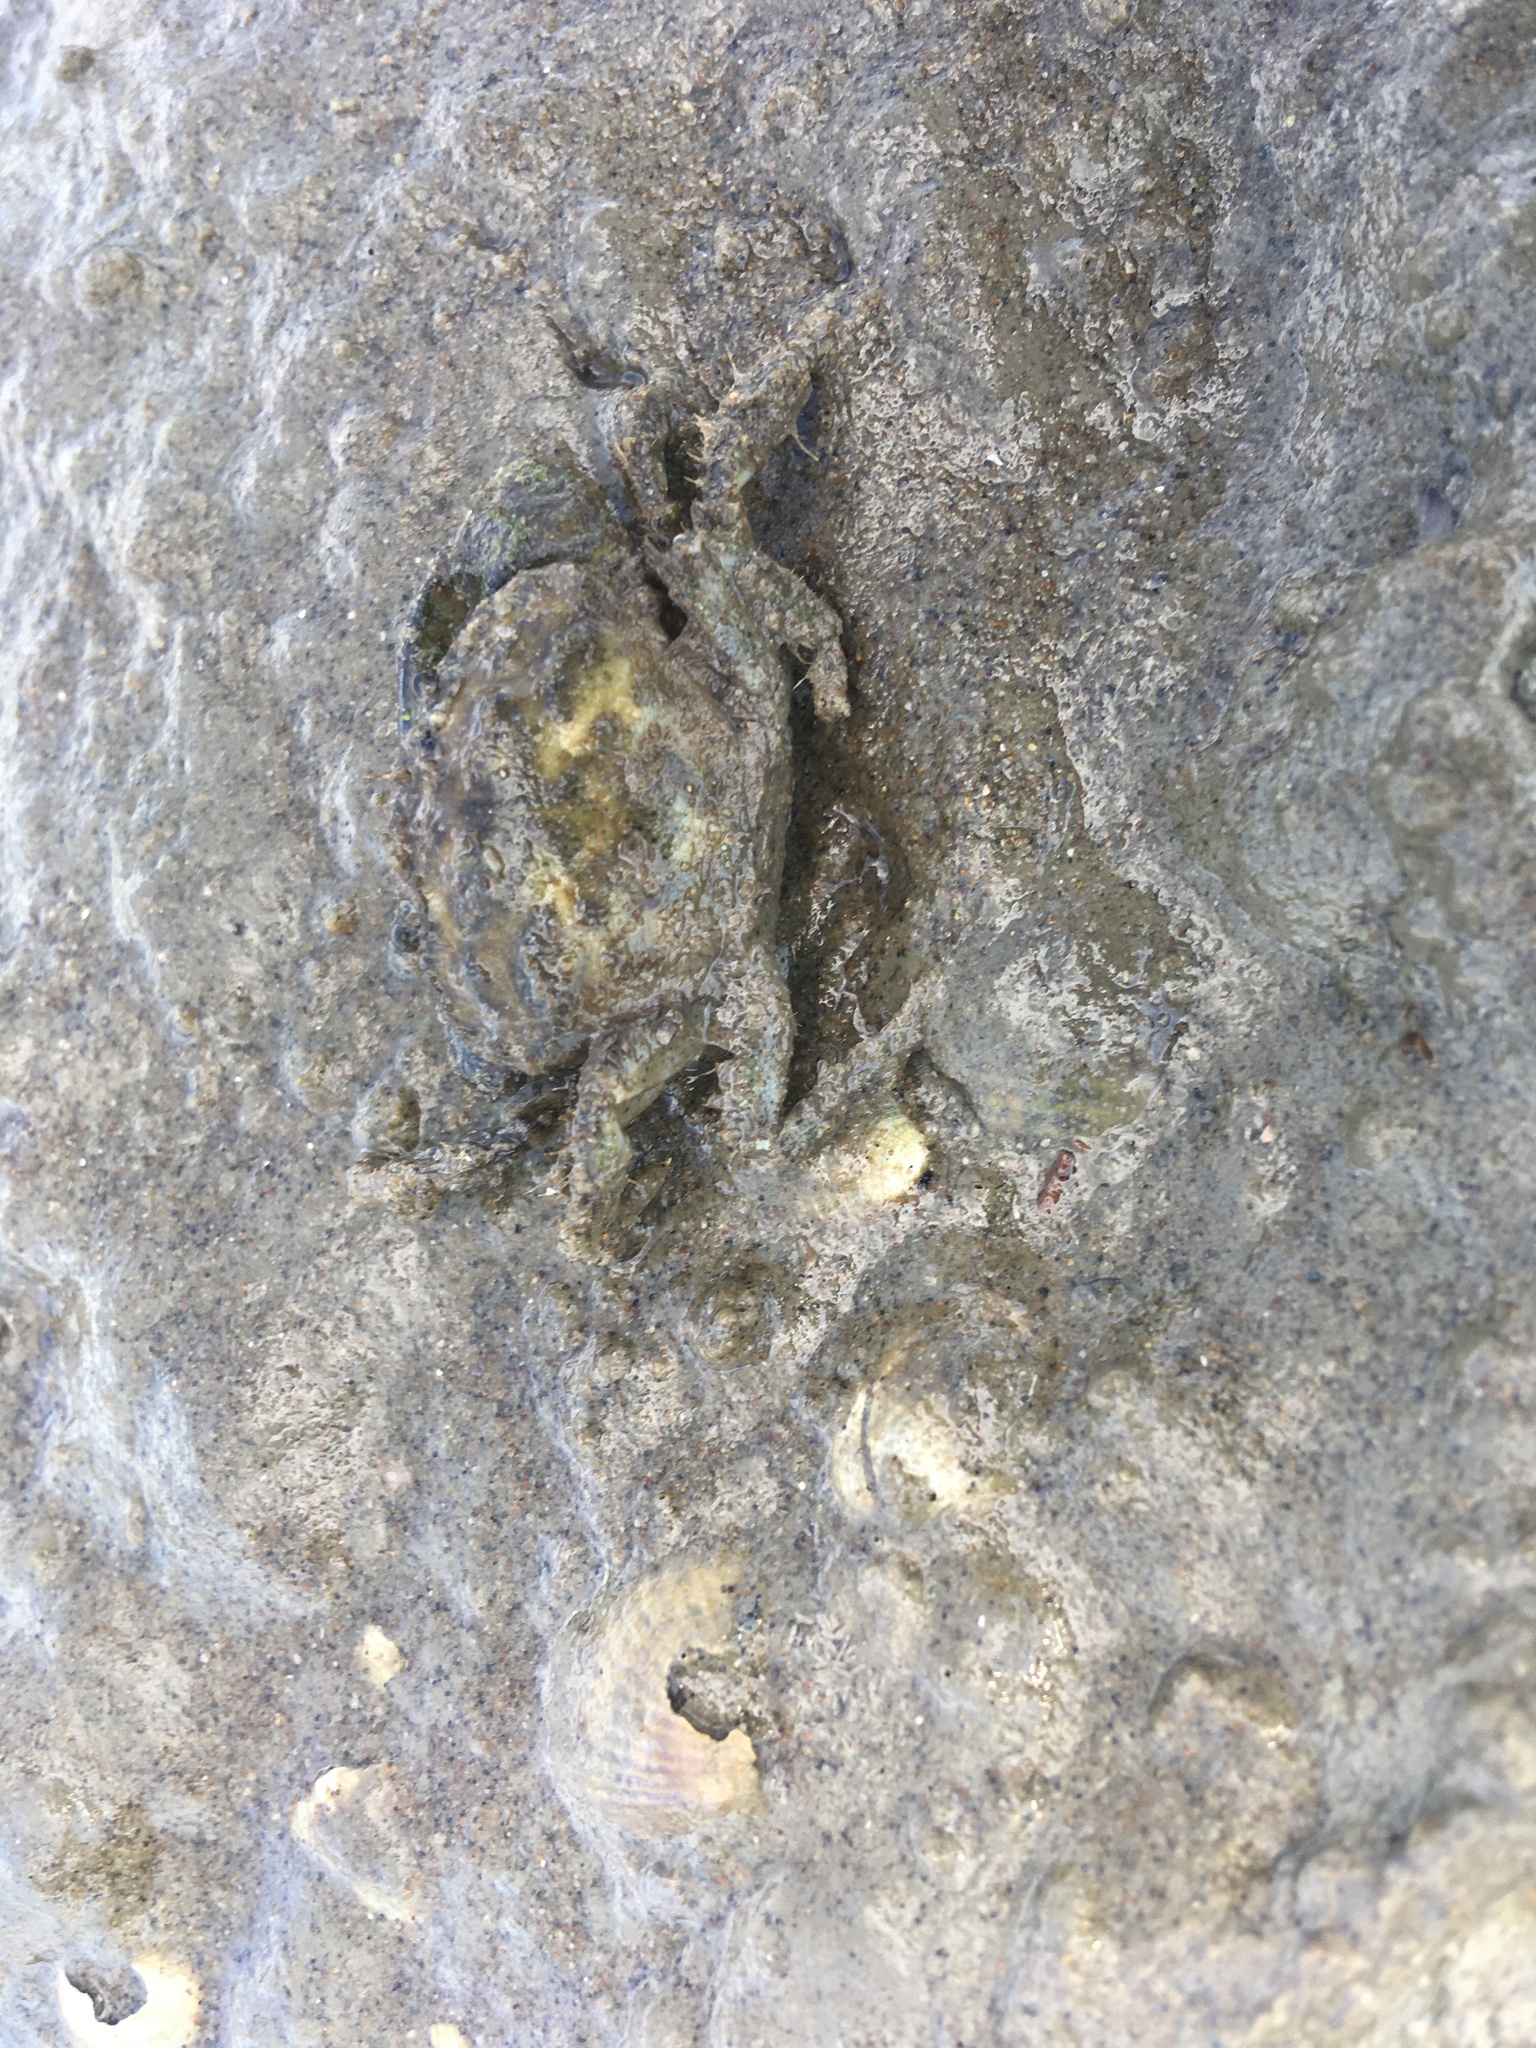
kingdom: Animalia
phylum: Arthropoda
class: Malacostraca
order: Decapoda
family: Pilumnidae
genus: Pilumnopeus
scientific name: Pilumnopeus serratifrons
